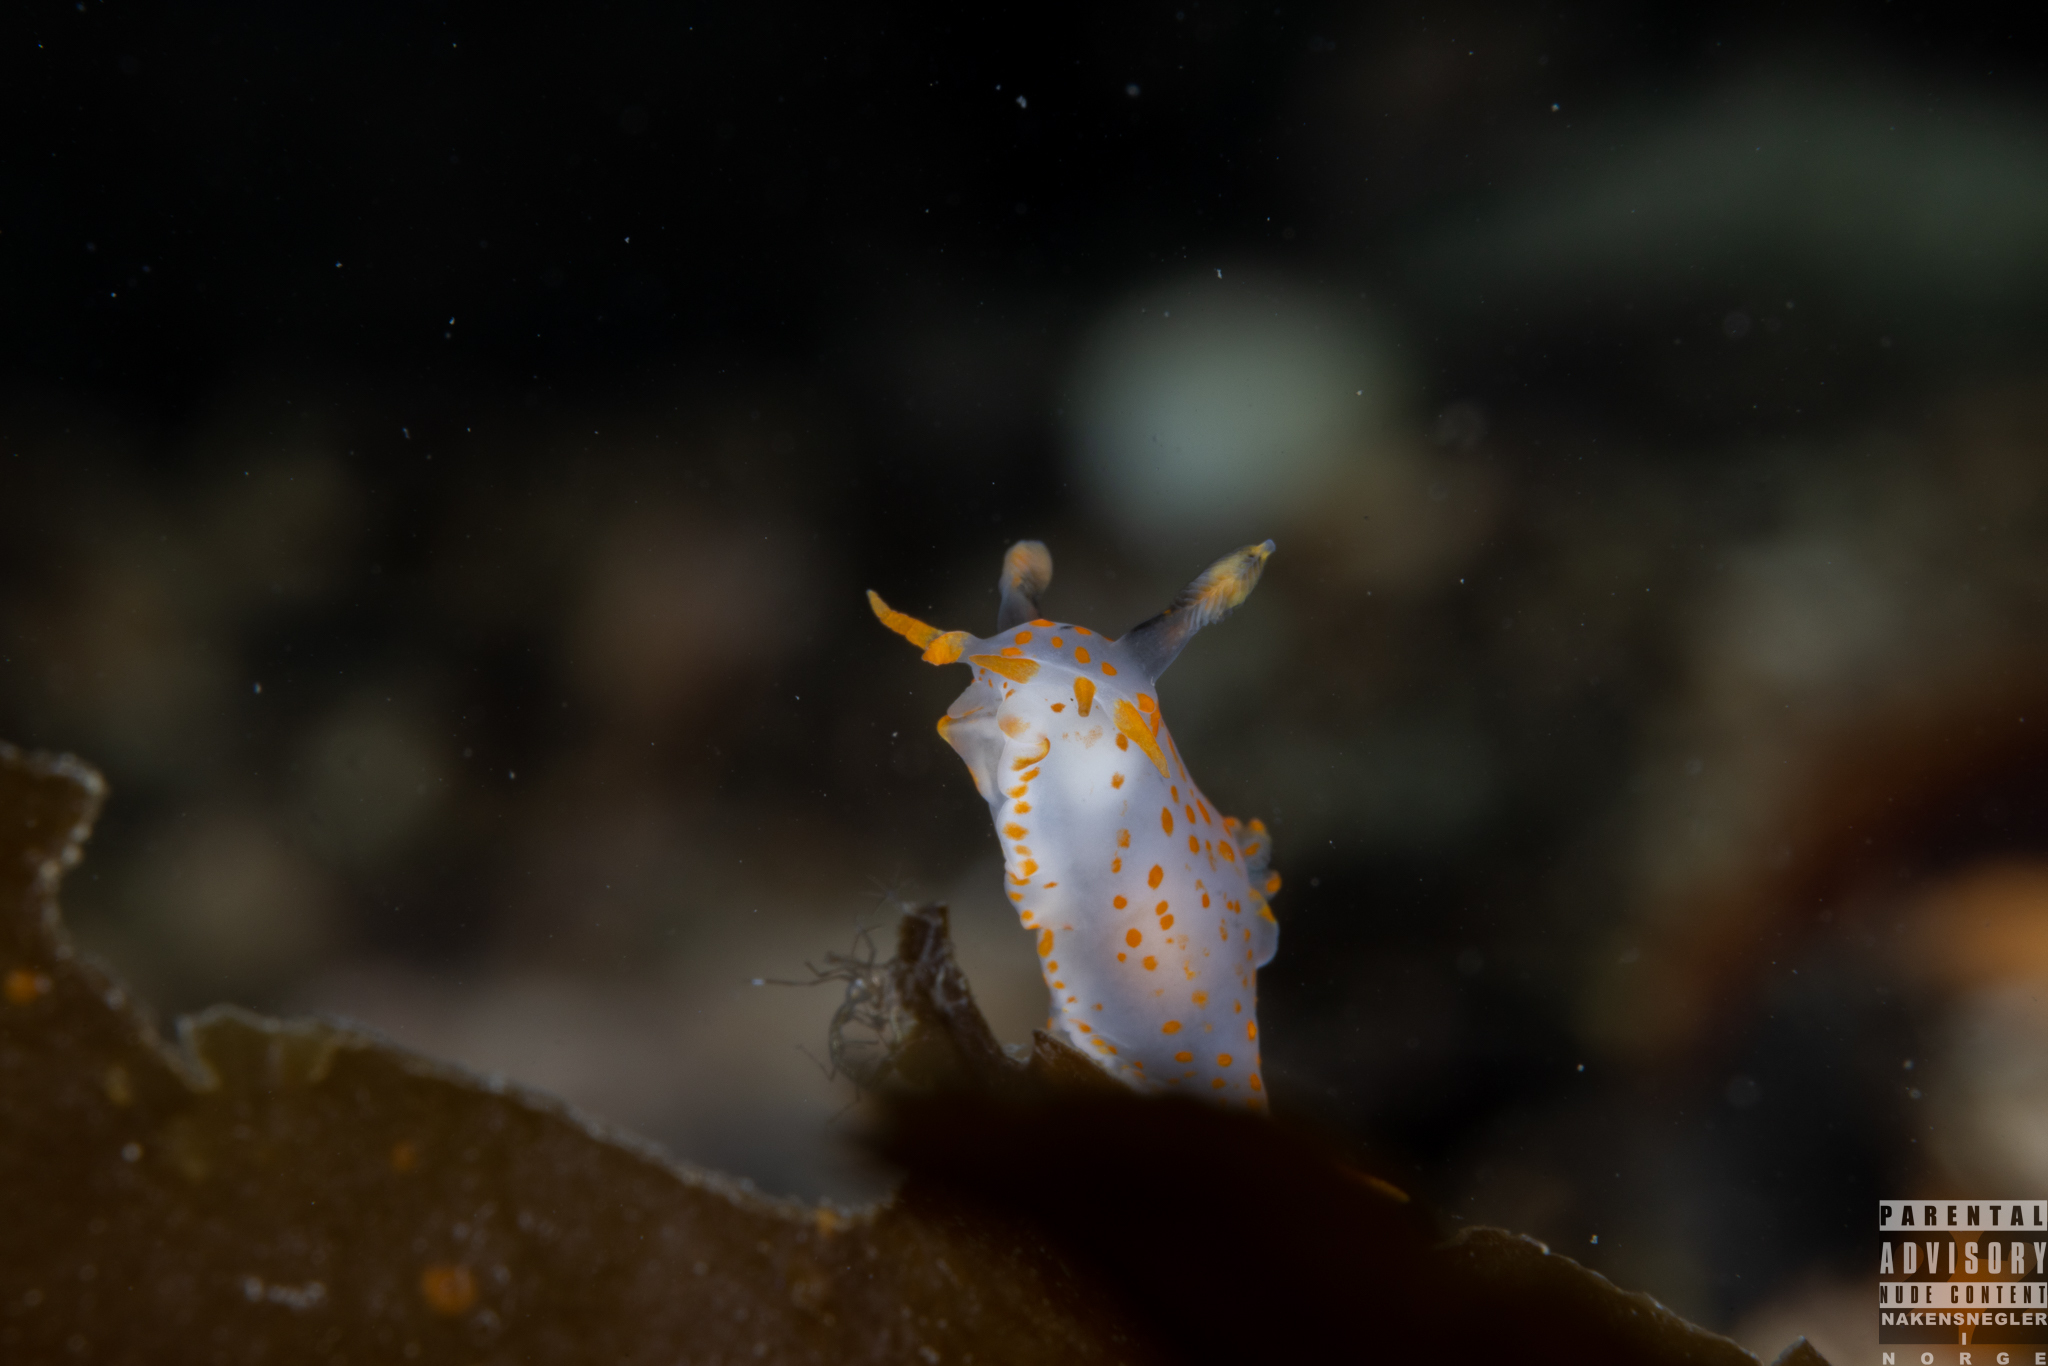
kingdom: Animalia
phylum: Mollusca
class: Gastropoda
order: Nudibranchia
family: Polyceridae
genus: Polycera
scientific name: Polycera quadrilineata
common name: Four-striped polycera
